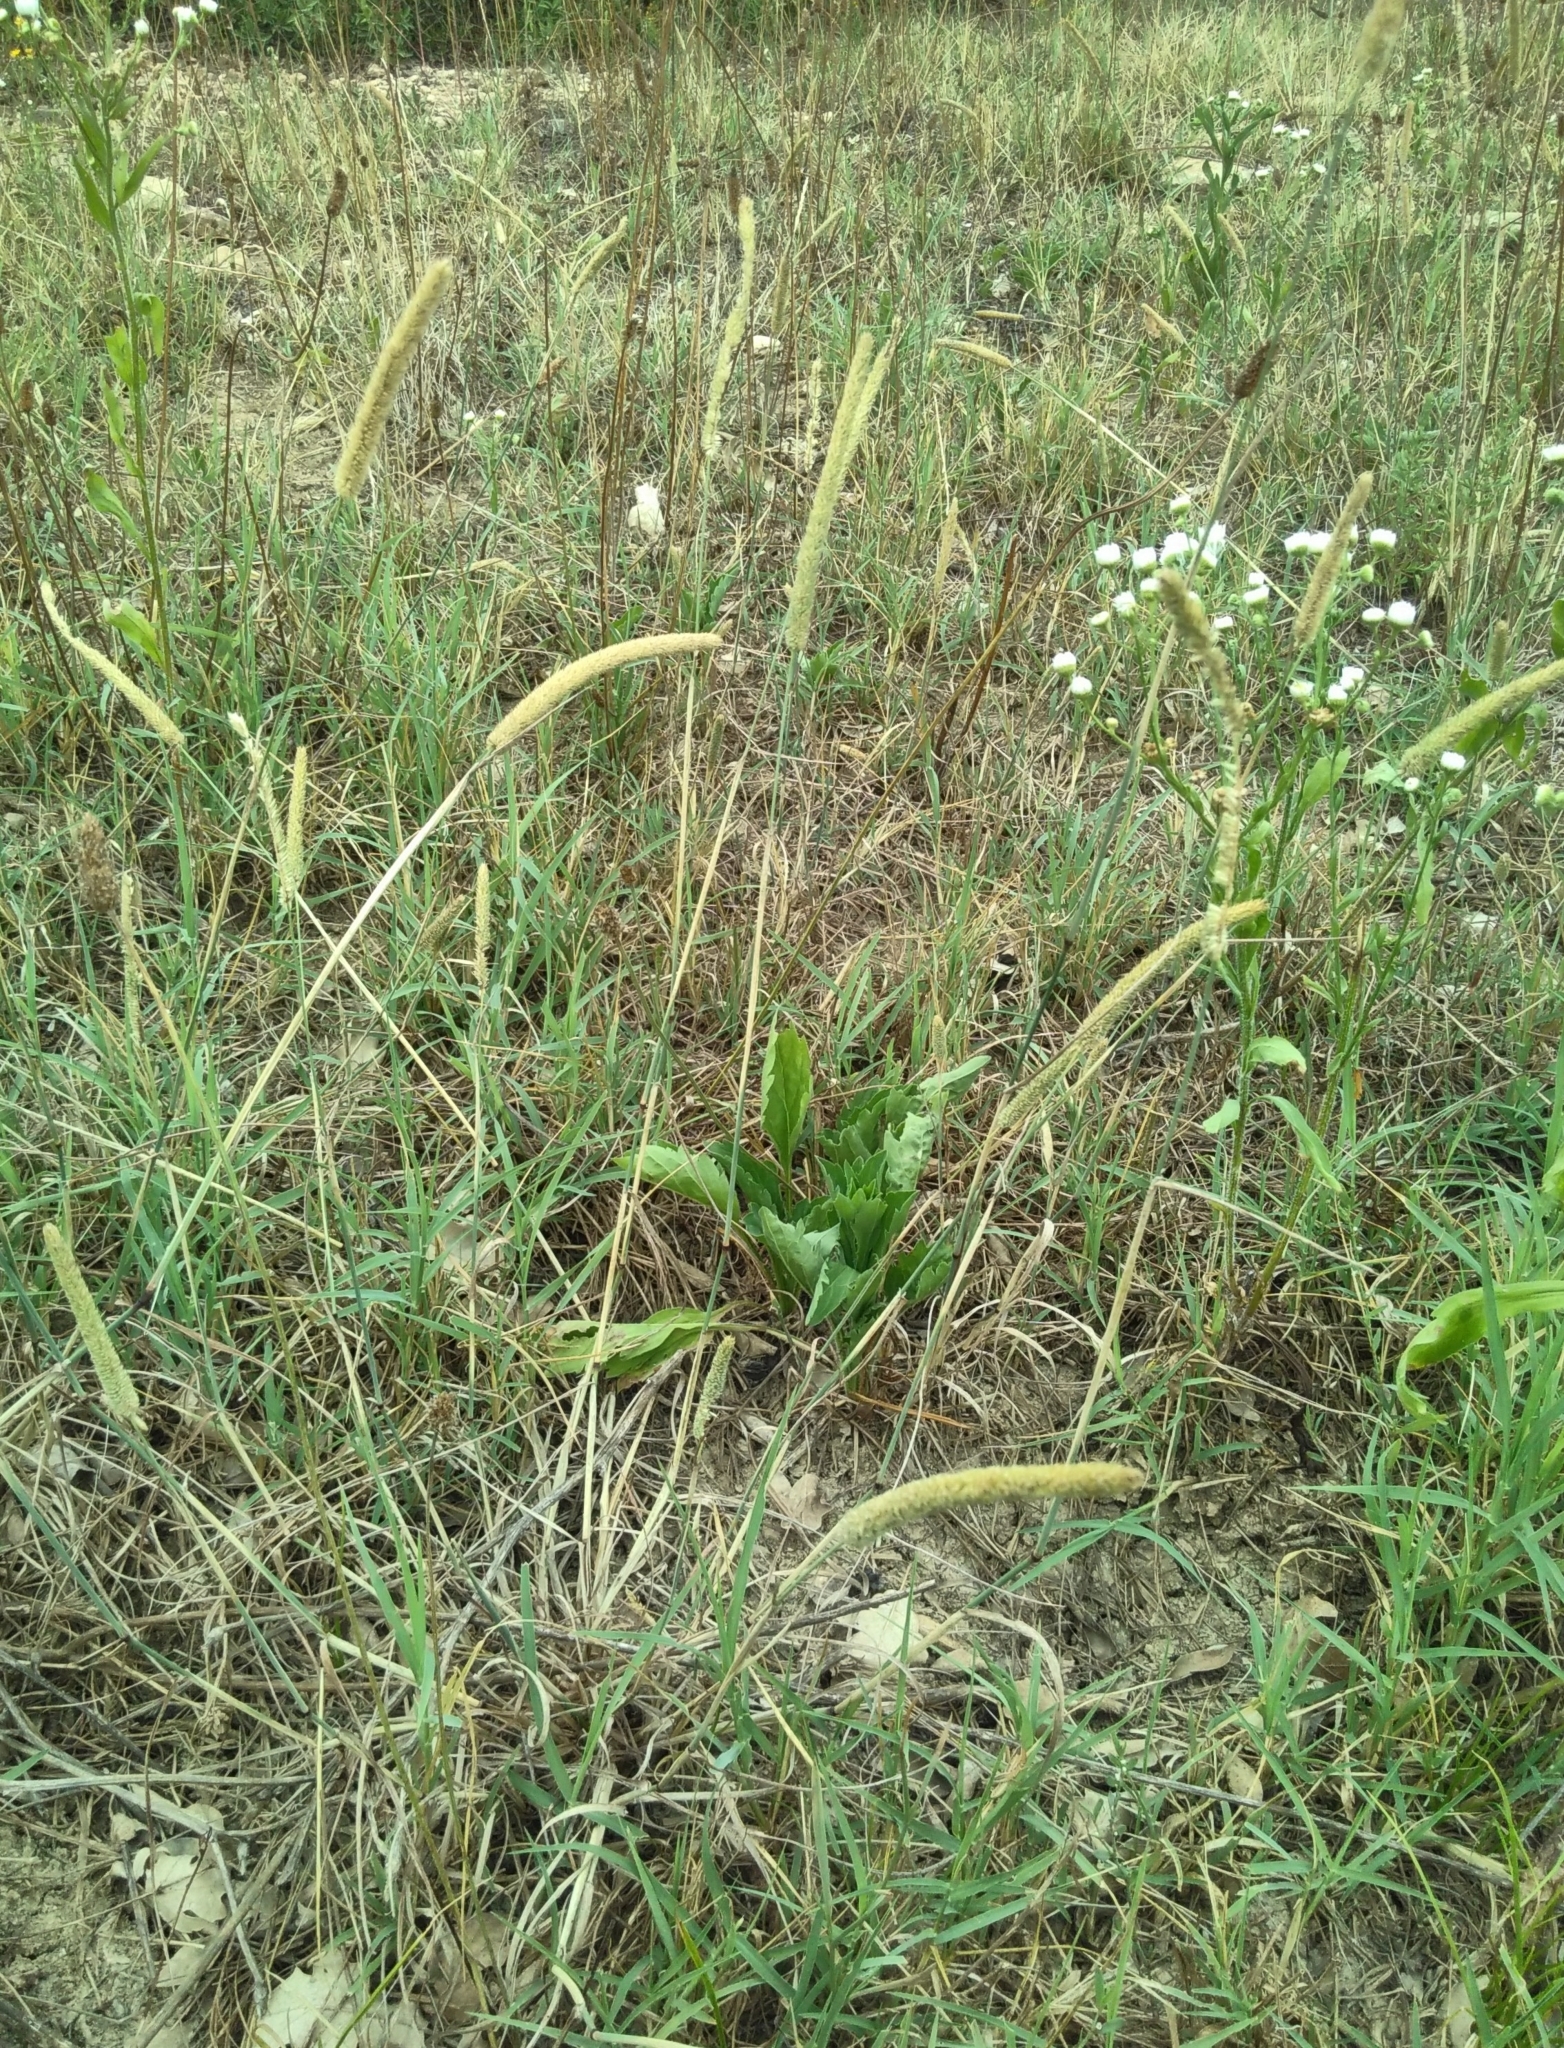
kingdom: Plantae
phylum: Tracheophyta
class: Liliopsida
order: Poales
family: Poaceae
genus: Phleum
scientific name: Phleum pratense
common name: Timothy grass
